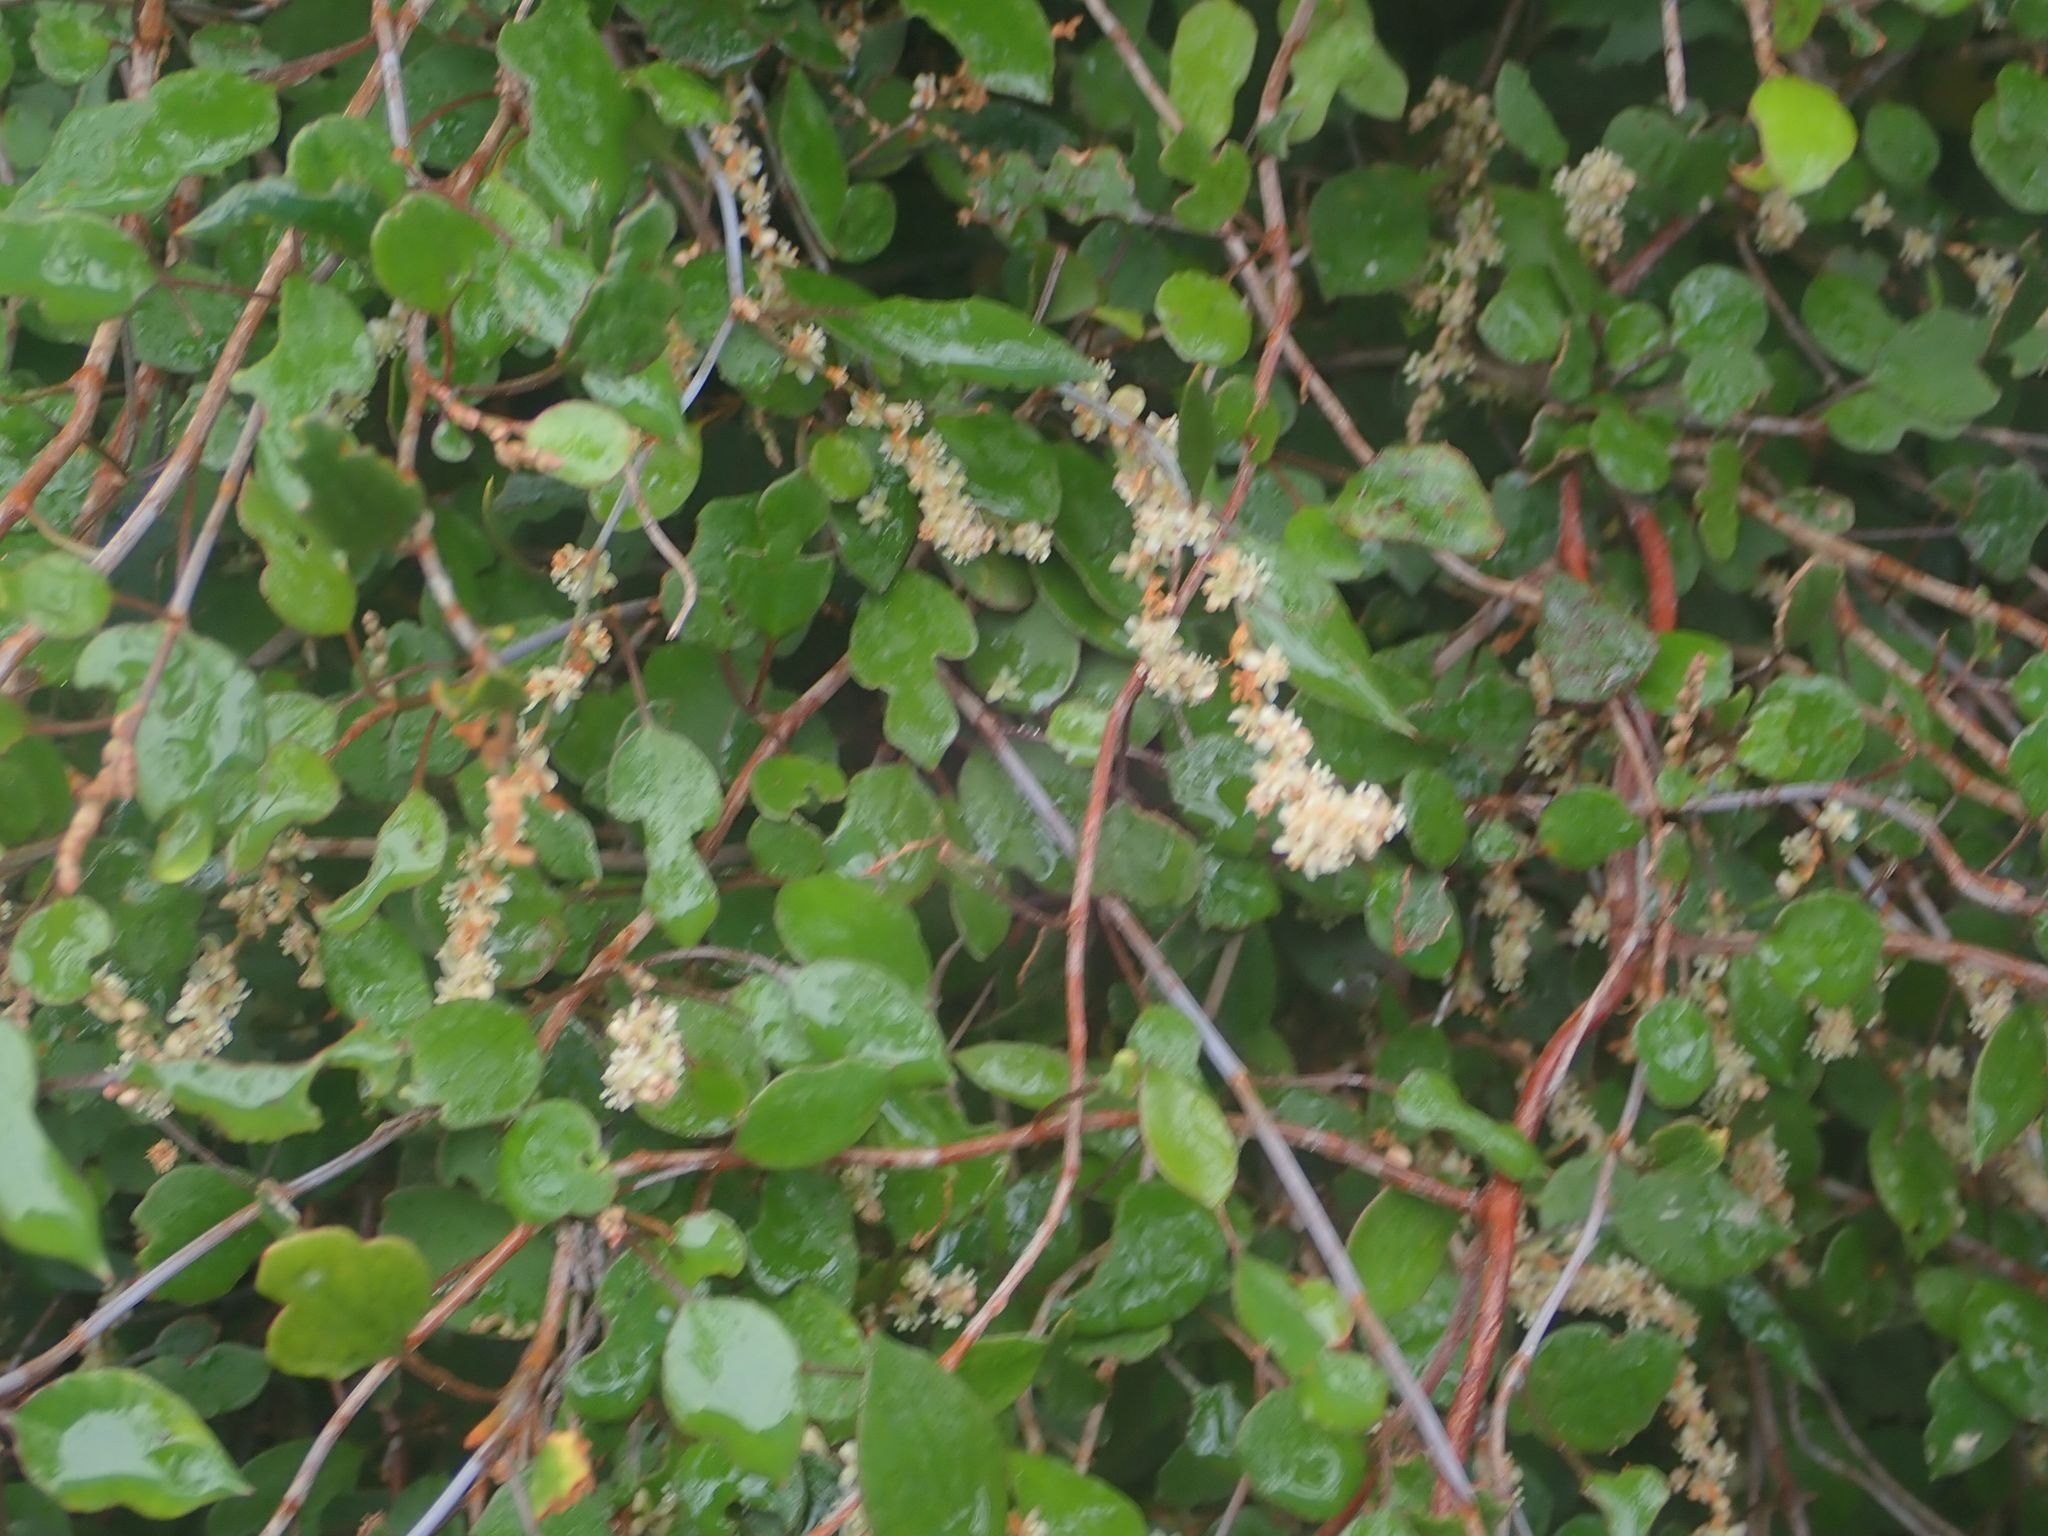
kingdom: Plantae
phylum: Tracheophyta
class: Magnoliopsida
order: Caryophyllales
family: Polygonaceae
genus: Muehlenbeckia
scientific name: Muehlenbeckia complexa
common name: Wireplant
